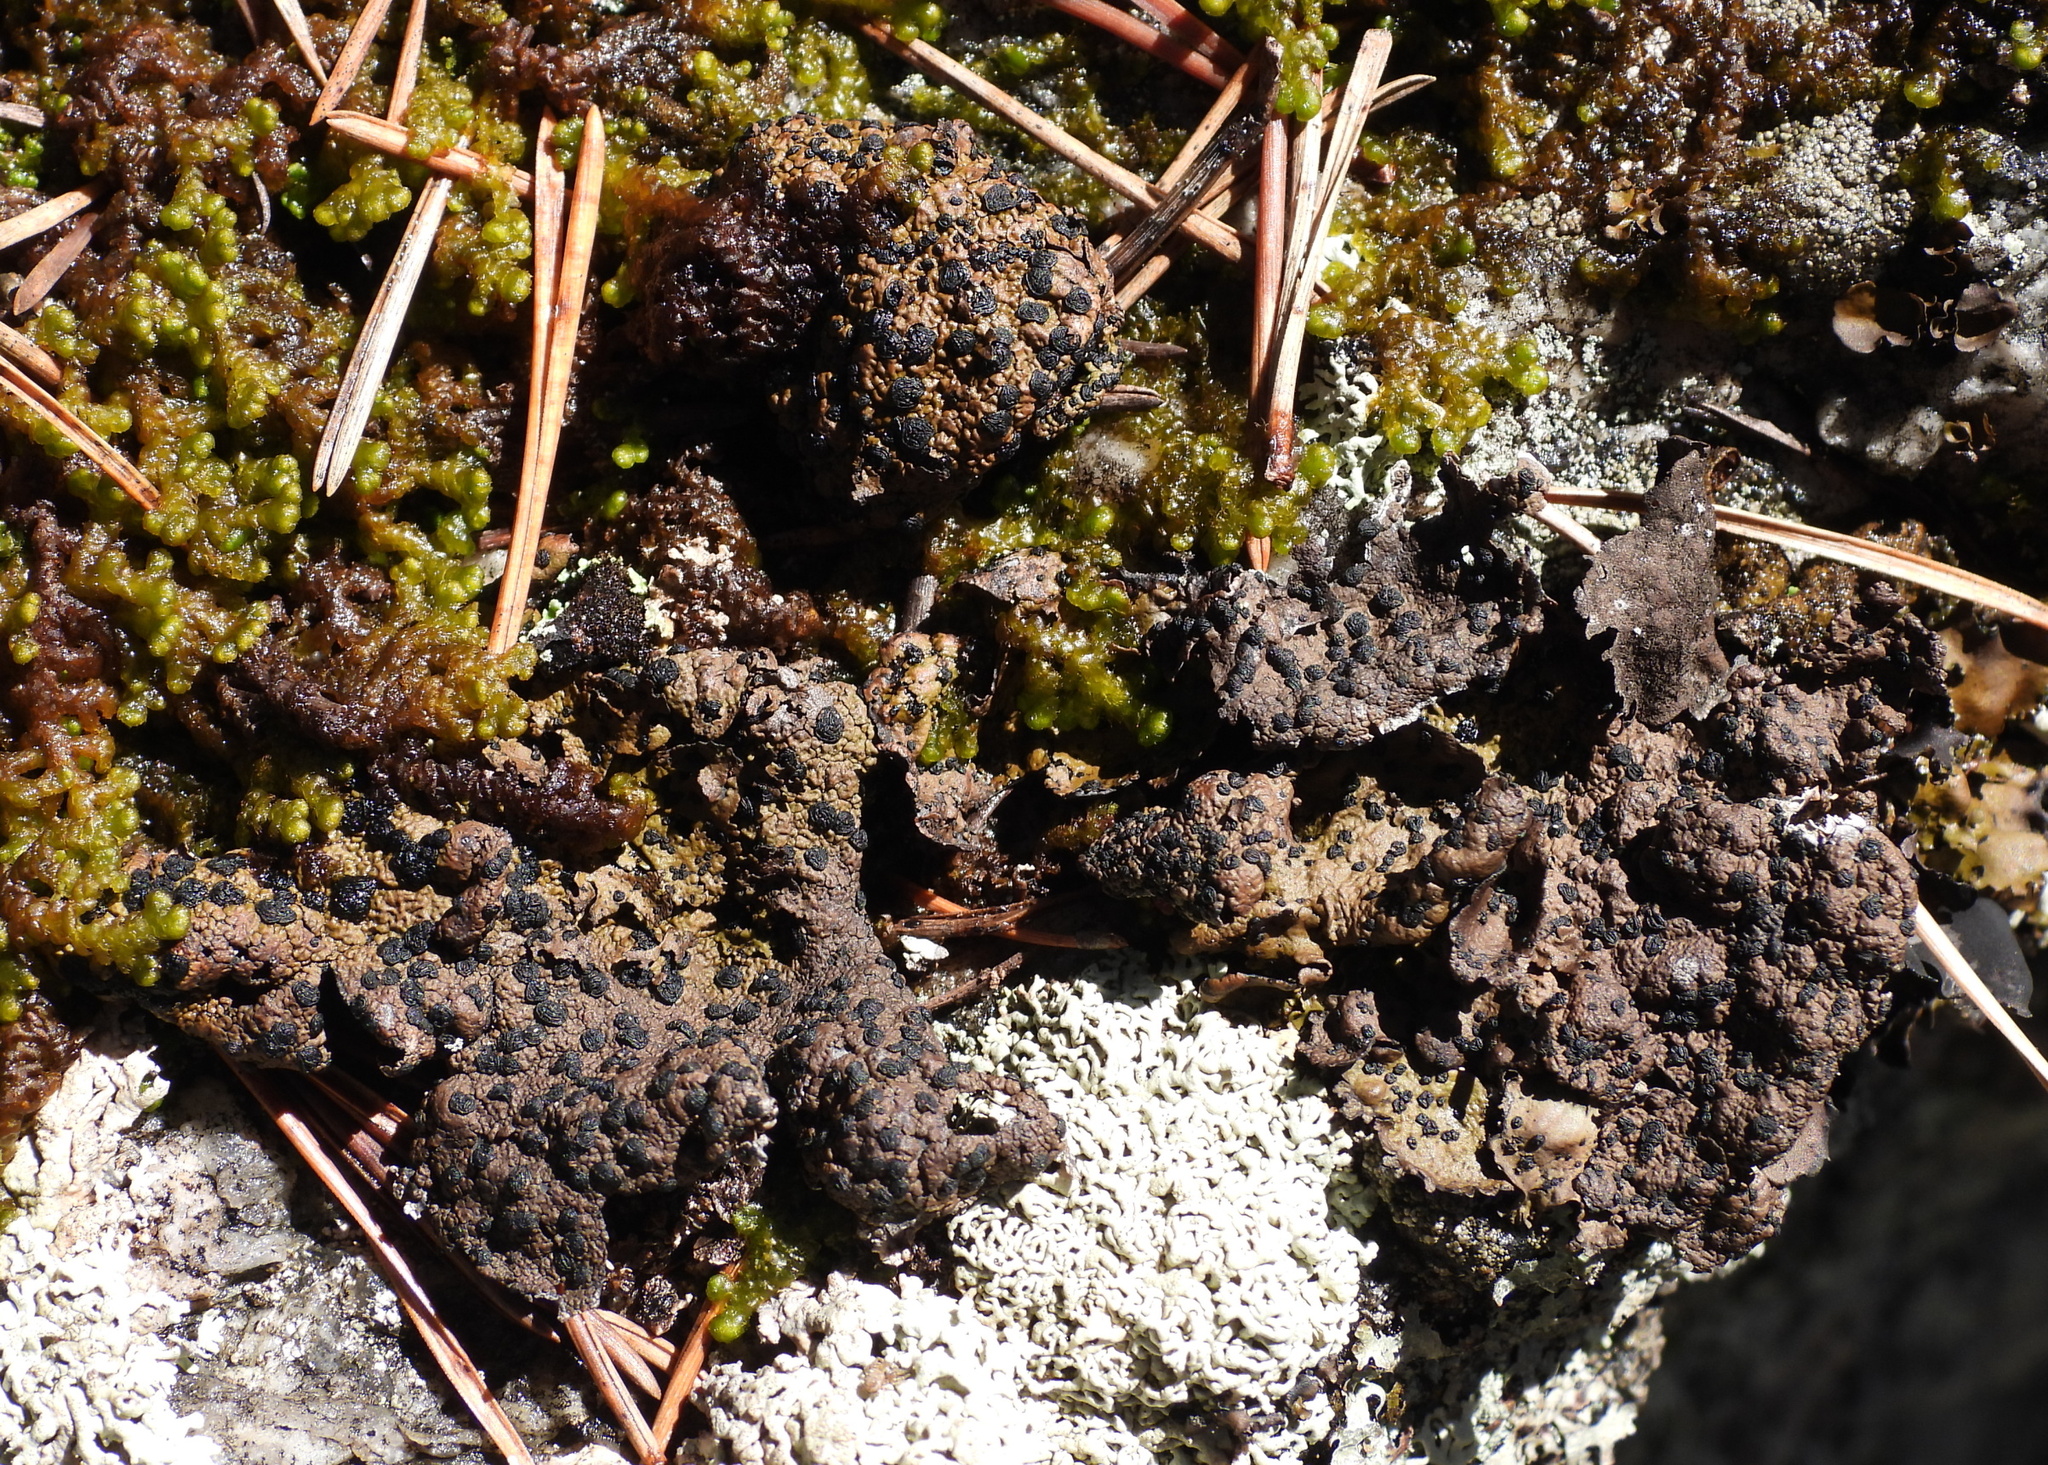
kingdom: Fungi
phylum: Ascomycota
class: Lecanoromycetes
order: Umbilicariales
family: Umbilicariaceae
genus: Umbilicaria
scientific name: Umbilicaria torrefacta
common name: Punctured rock tripe lichen
